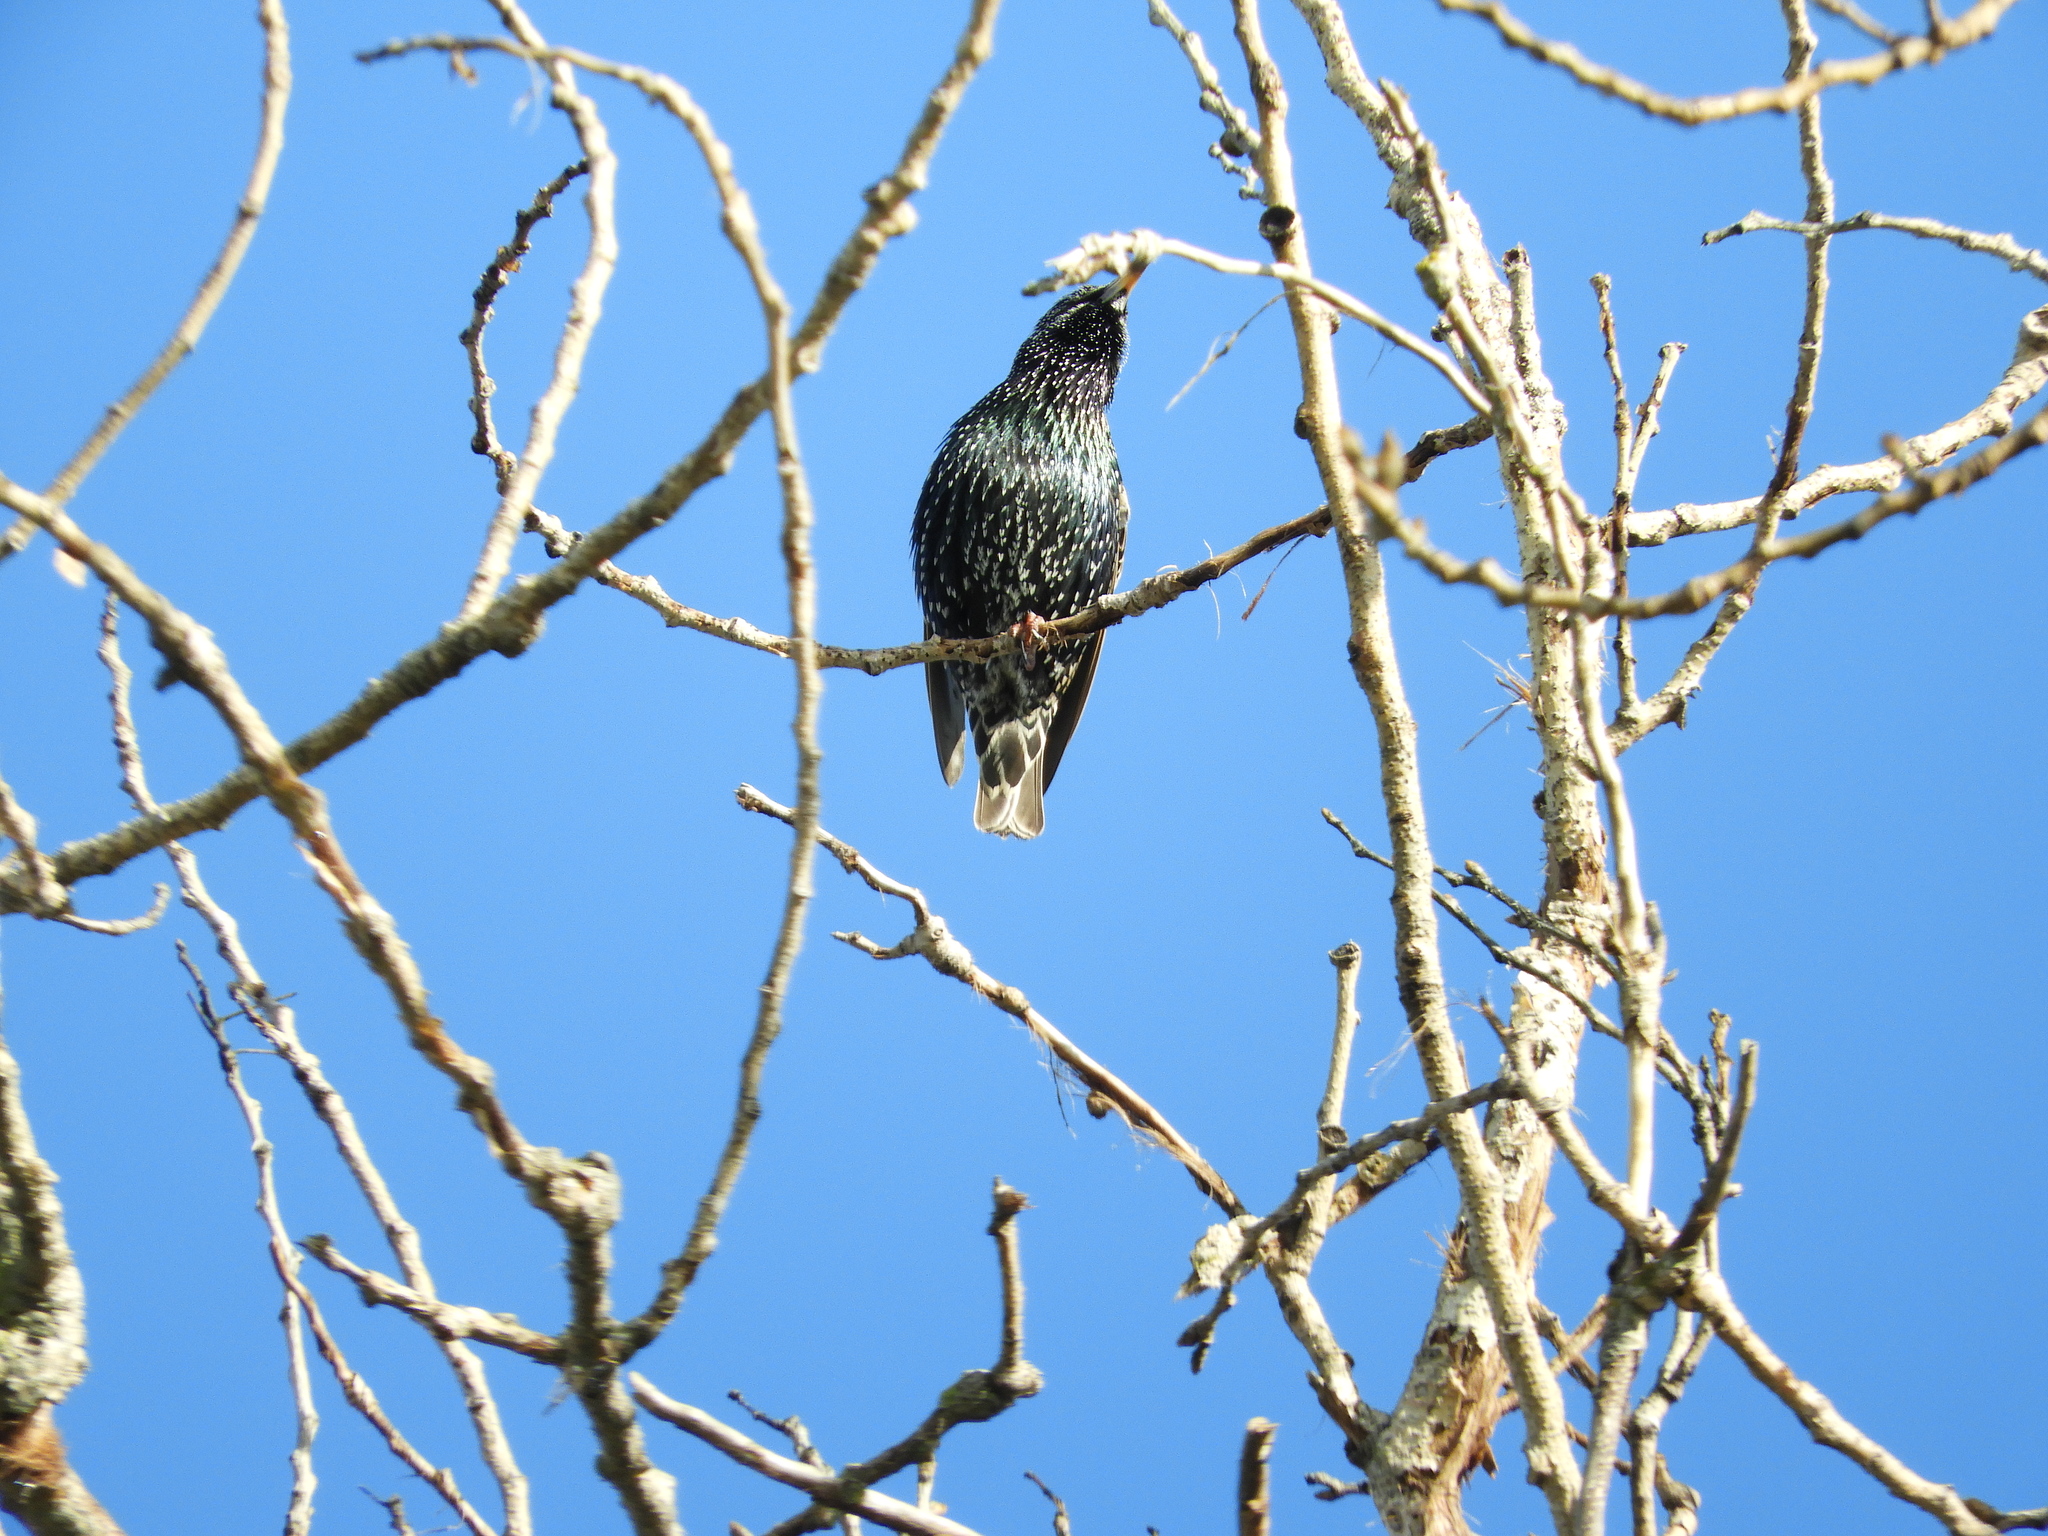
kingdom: Animalia
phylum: Chordata
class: Aves
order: Passeriformes
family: Sturnidae
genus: Sturnus
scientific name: Sturnus vulgaris
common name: Common starling
